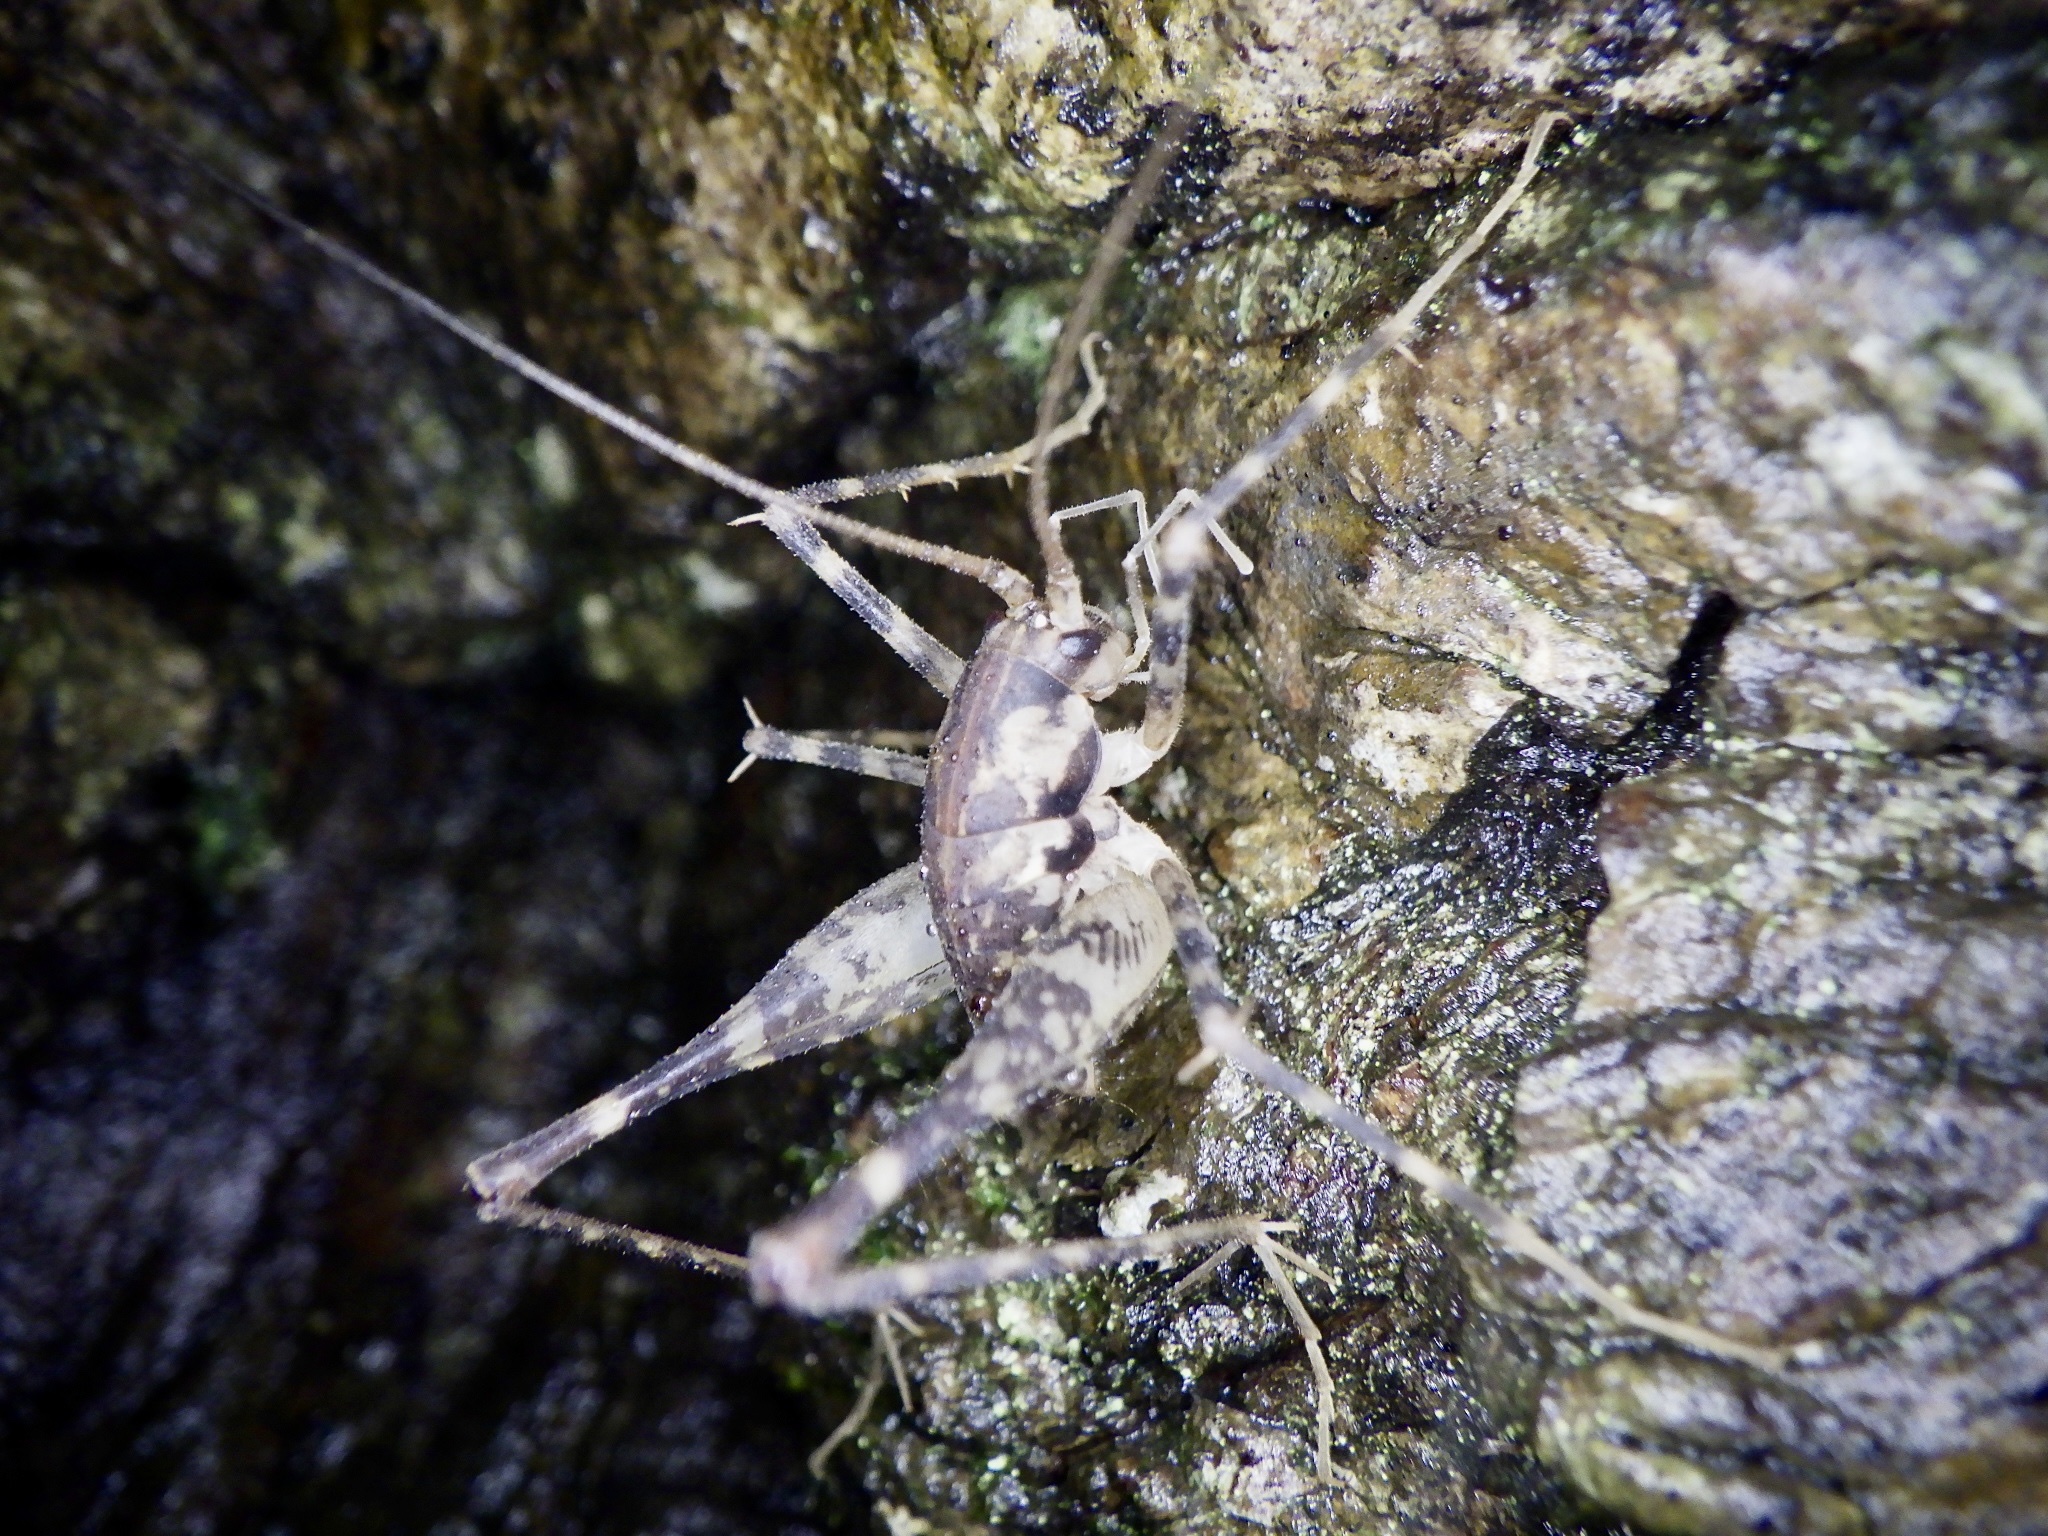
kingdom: Animalia
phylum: Arthropoda
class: Insecta
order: Orthoptera
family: Rhaphidophoridae
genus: Diestrammena
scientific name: Diestrammena japanica
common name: Japanese camel cricket
